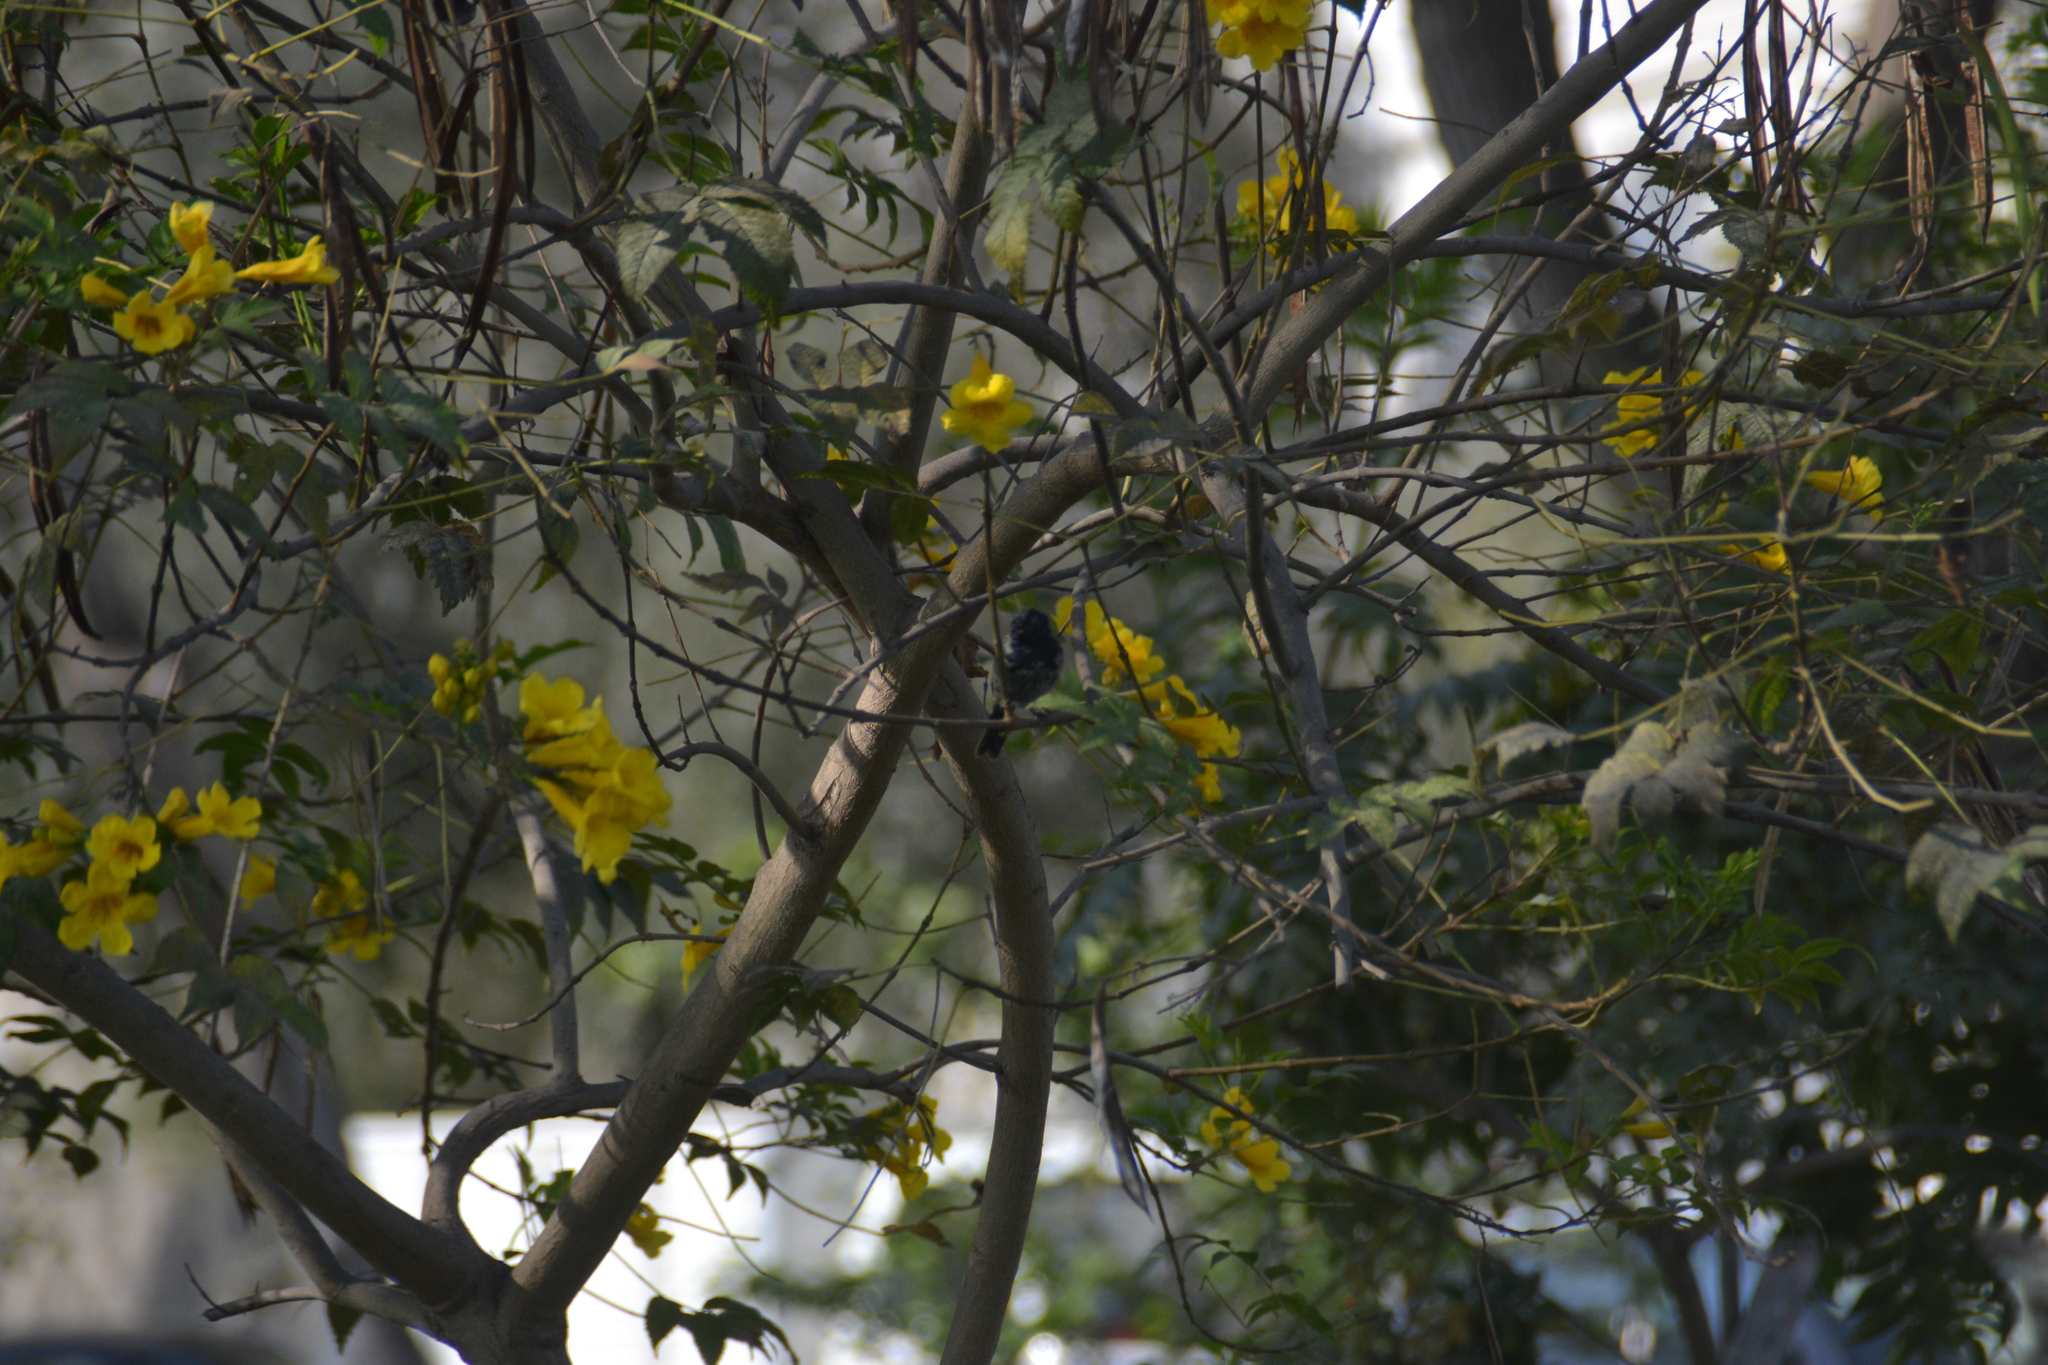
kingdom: Animalia
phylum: Chordata
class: Aves
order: Passeriformes
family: Thraupidae
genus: Volatinia
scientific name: Volatinia jacarina
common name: Blue-black grassquit
